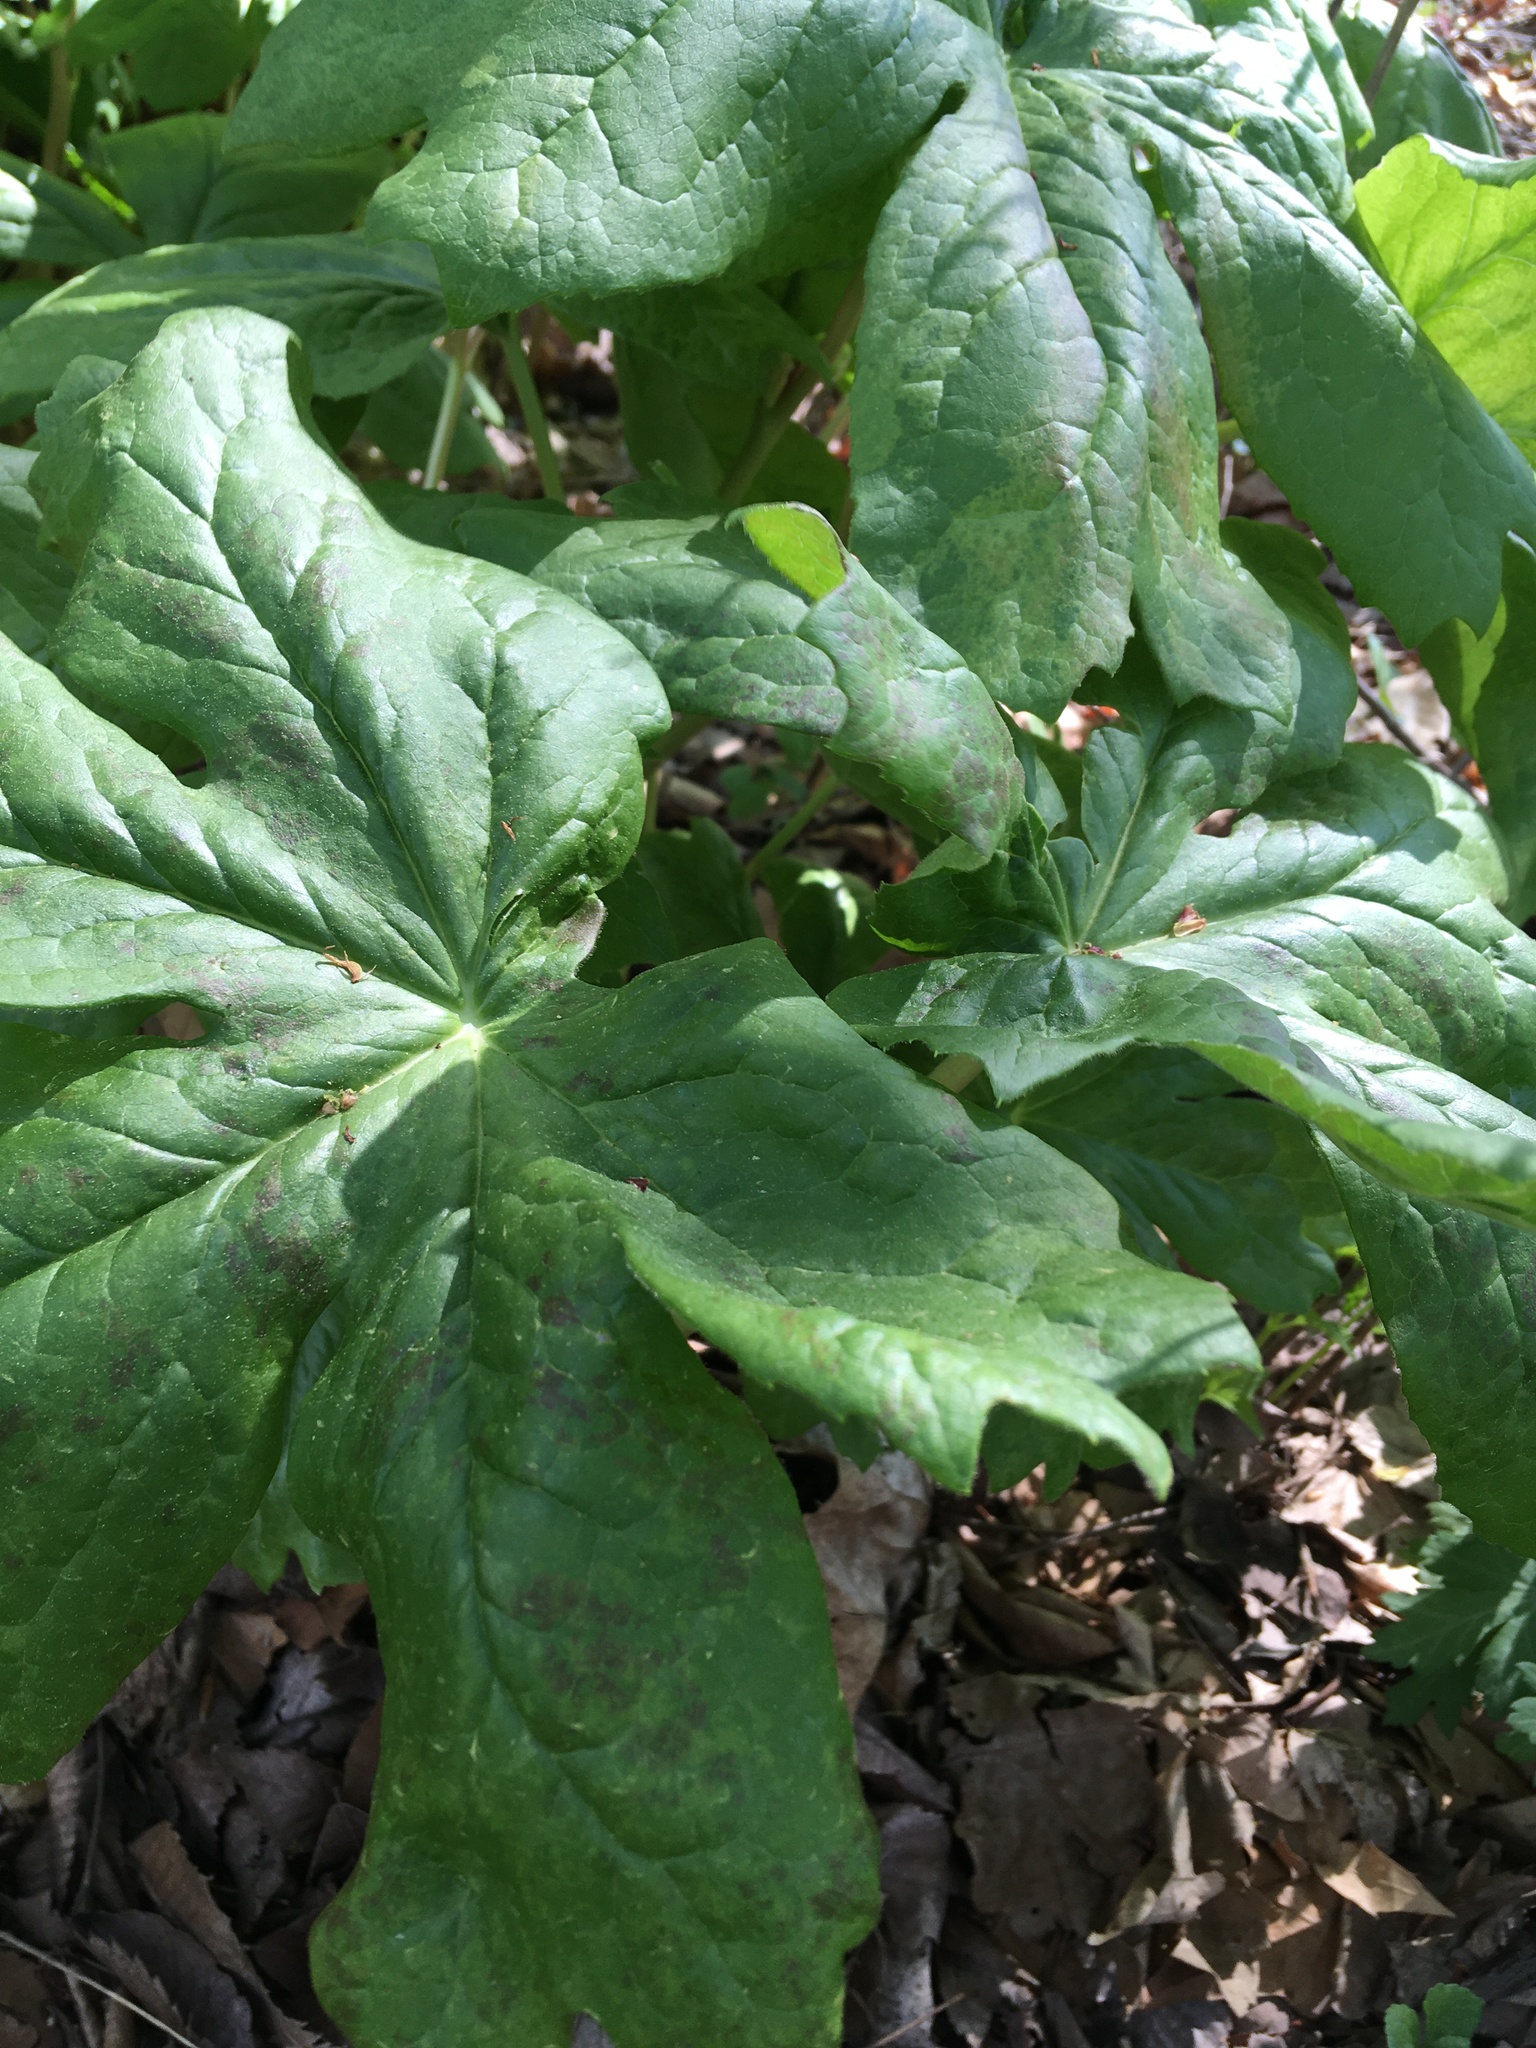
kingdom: Plantae
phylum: Tracheophyta
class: Magnoliopsida
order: Ranunculales
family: Berberidaceae
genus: Podophyllum
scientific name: Podophyllum peltatum
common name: Wild mandrake
